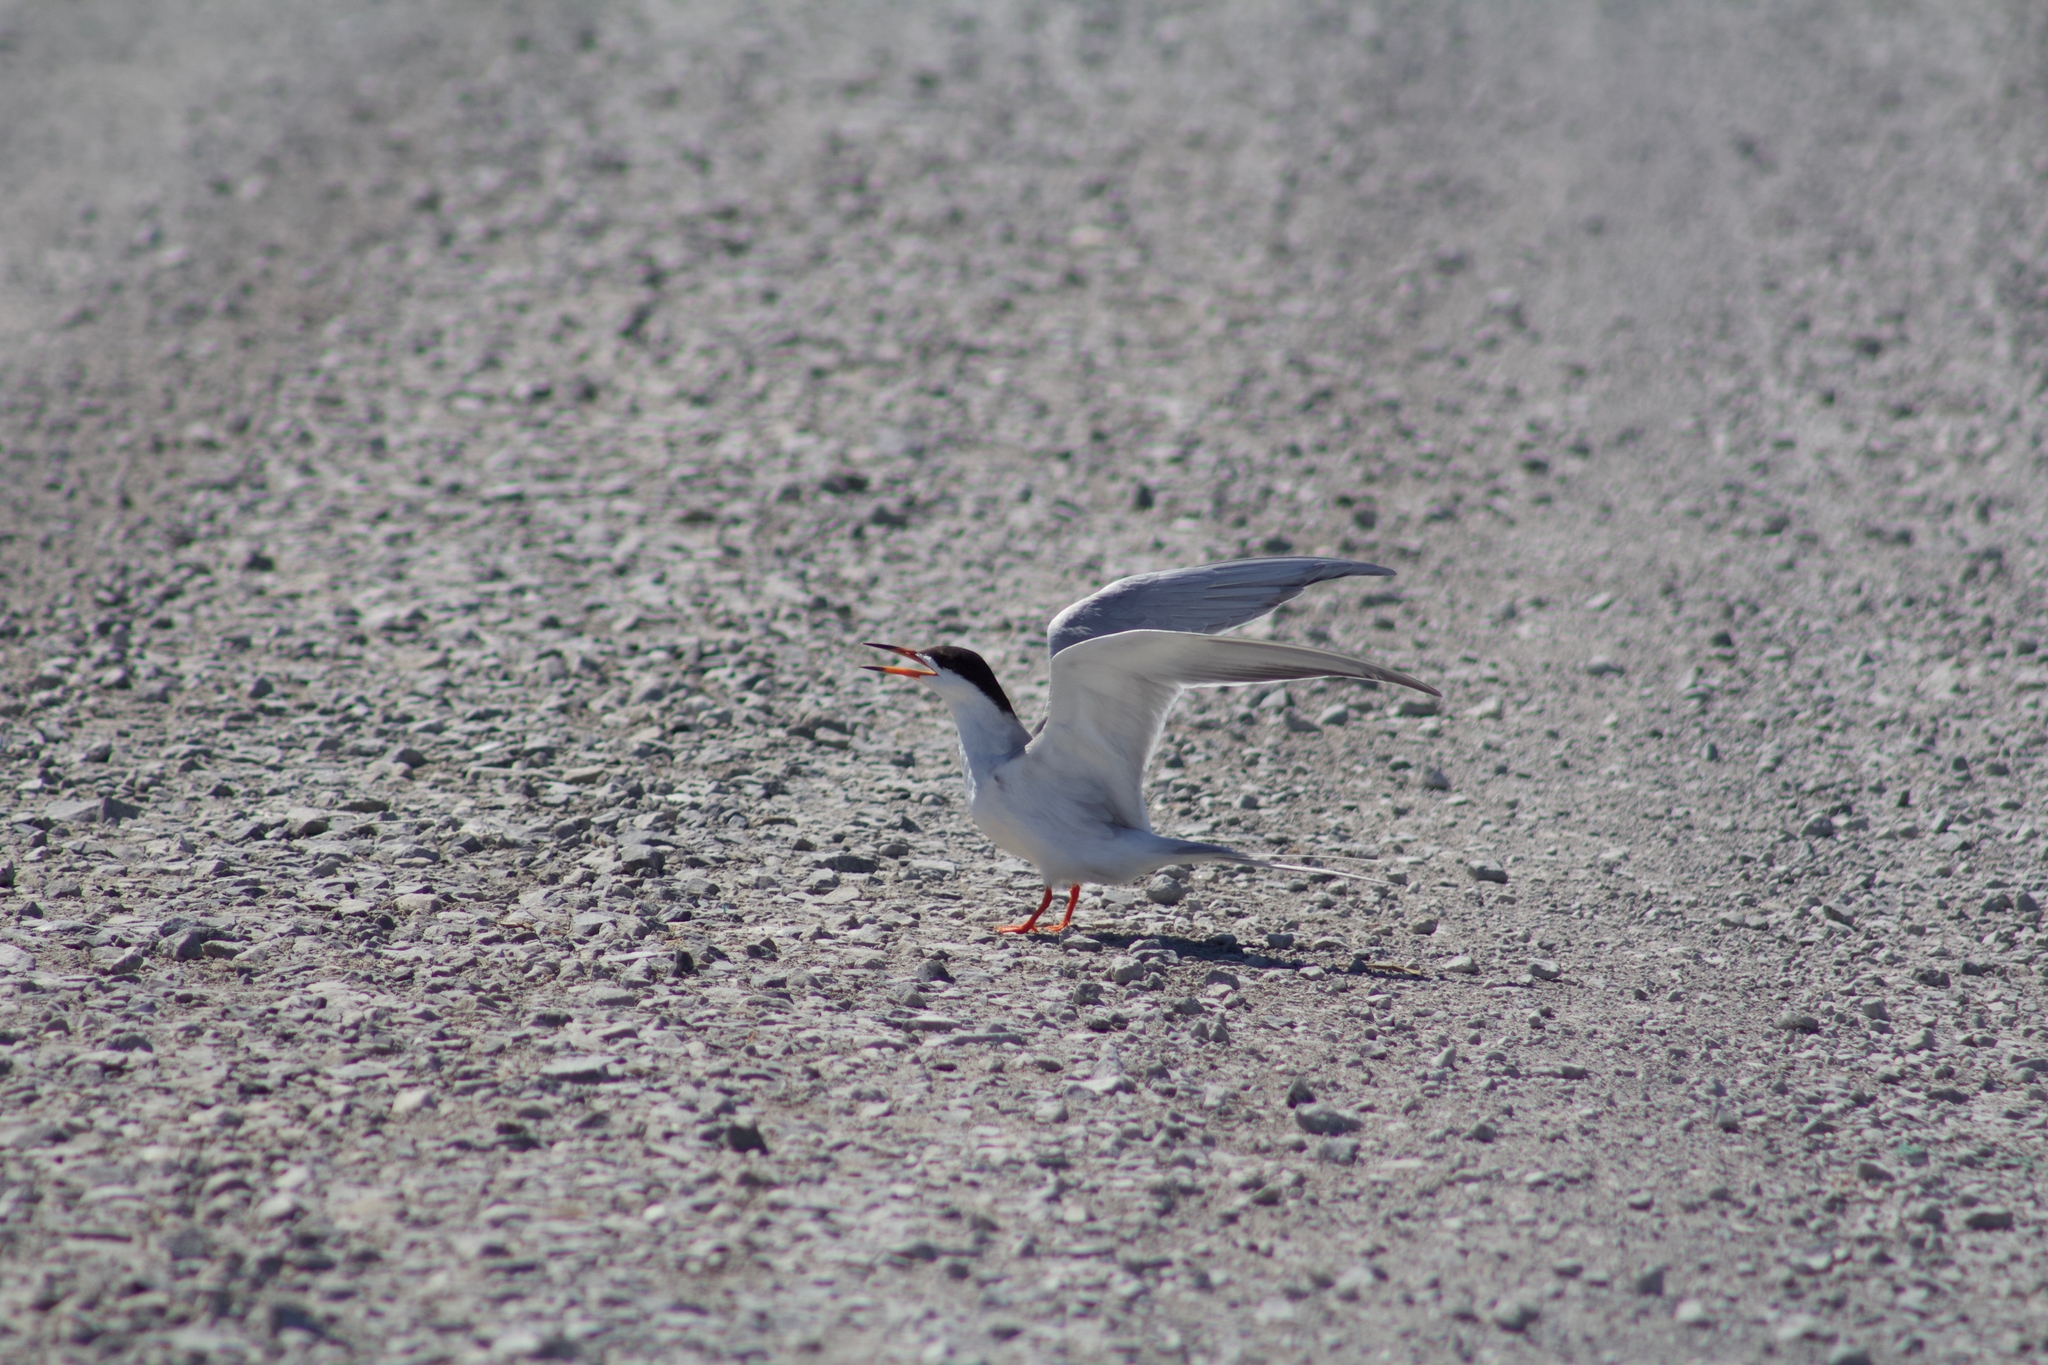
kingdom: Animalia
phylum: Chordata
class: Aves
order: Charadriiformes
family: Laridae
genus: Sterna
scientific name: Sterna forsteri
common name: Forster's tern
